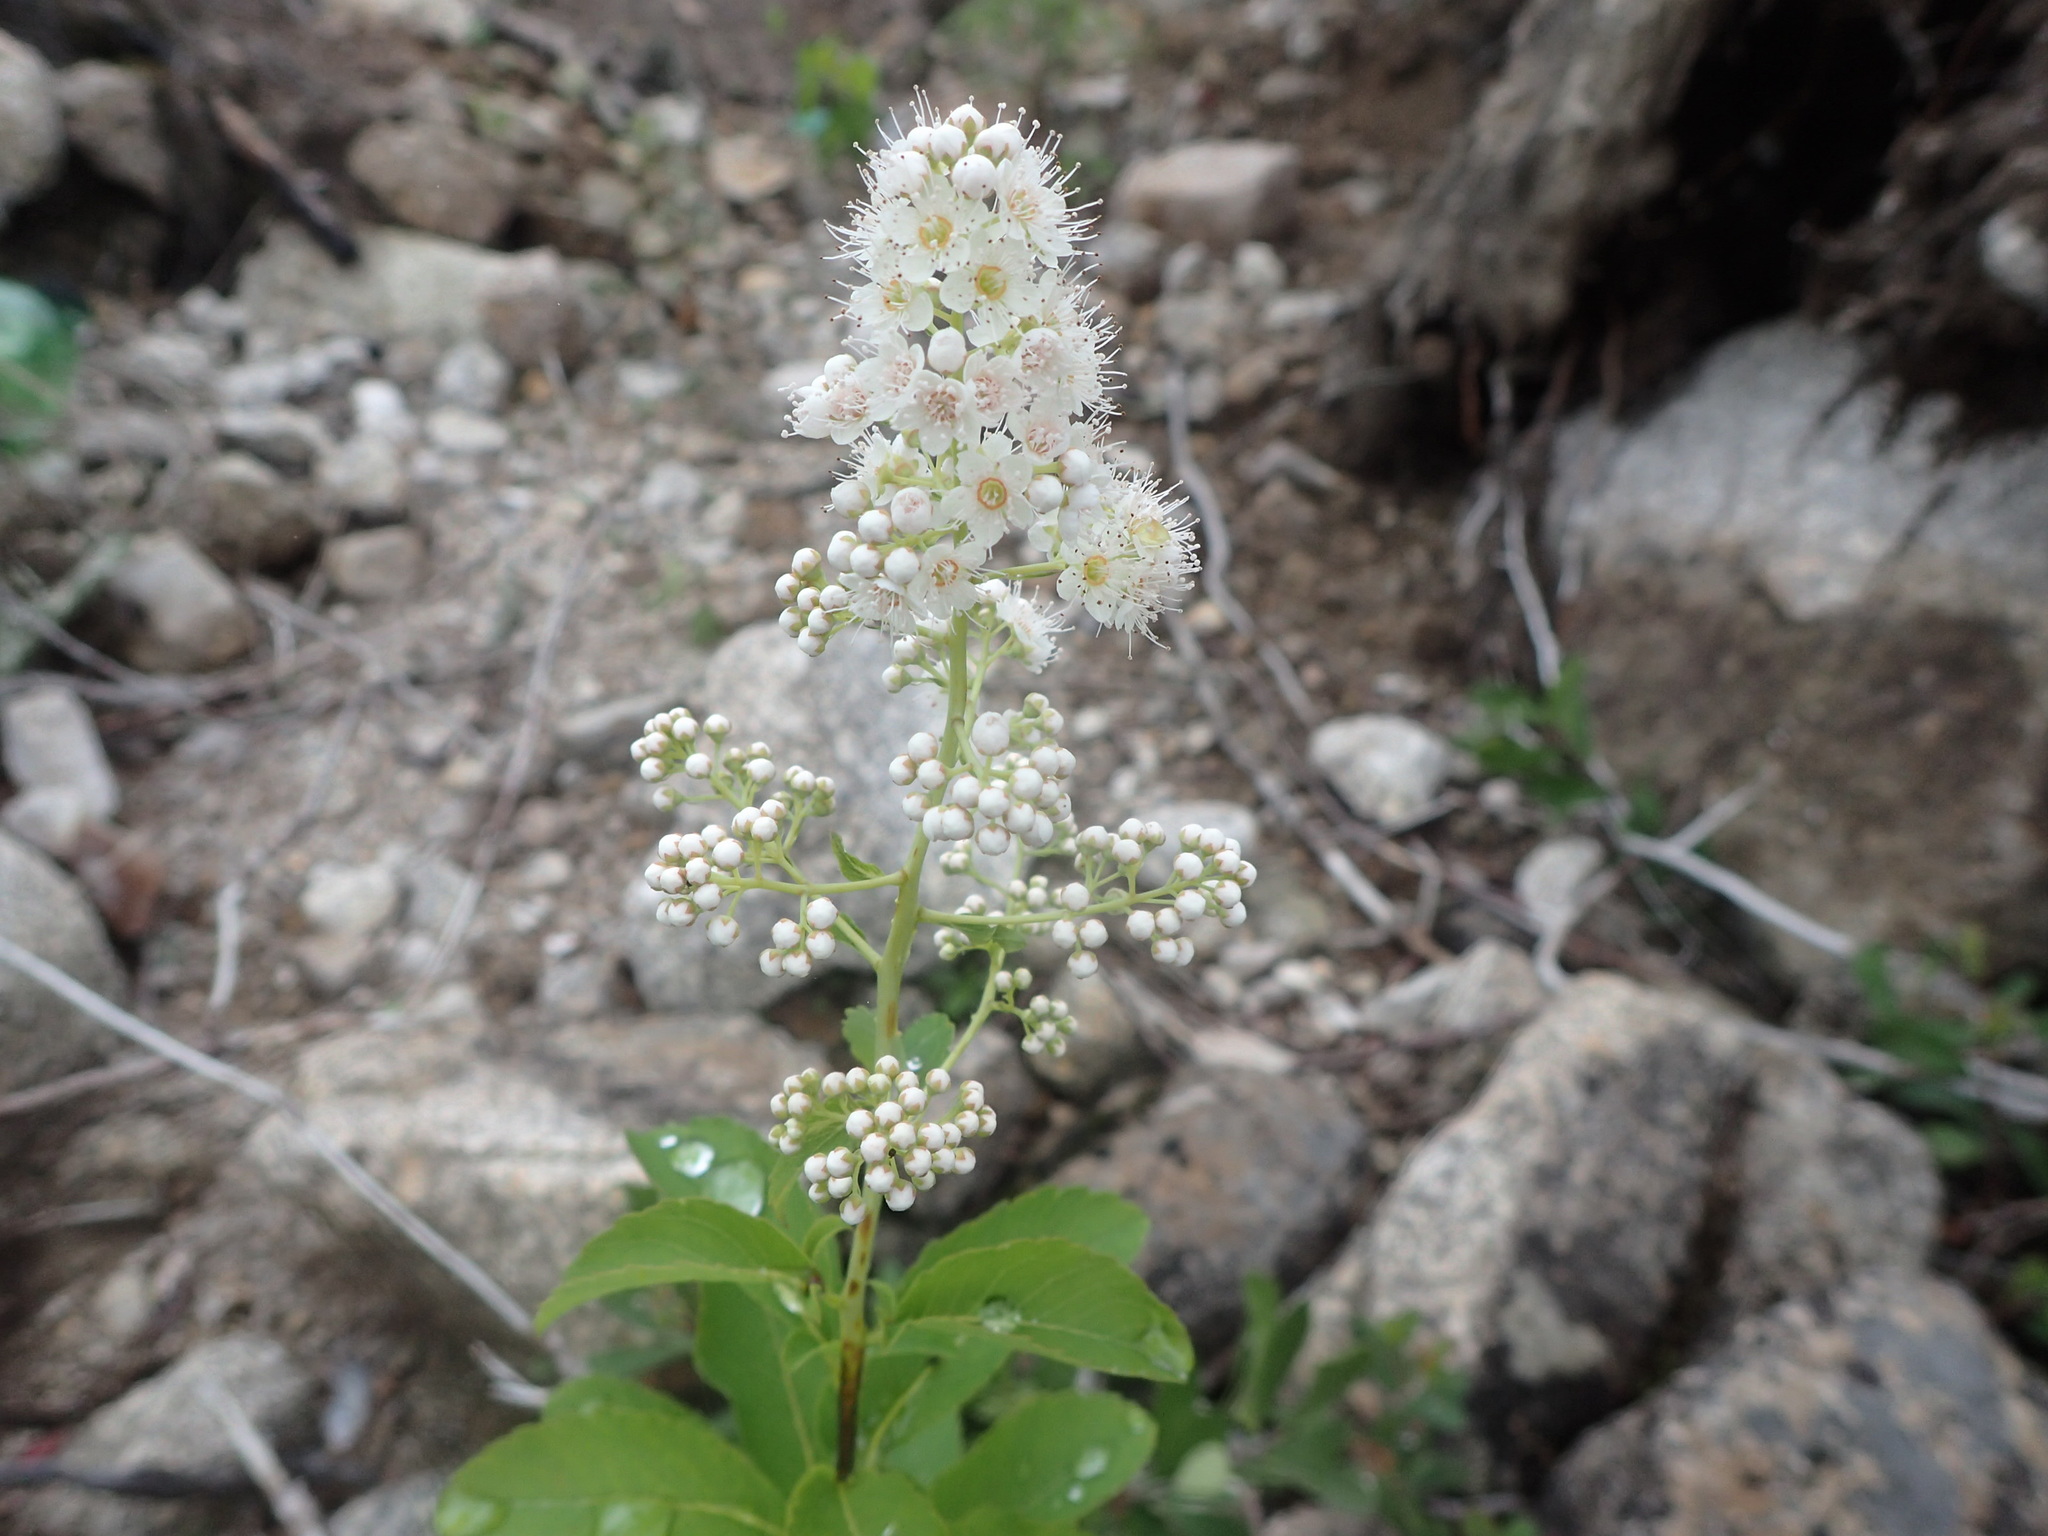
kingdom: Plantae
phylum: Tracheophyta
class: Magnoliopsida
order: Rosales
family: Rosaceae
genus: Spiraea
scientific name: Spiraea alba
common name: Pale bridewort
